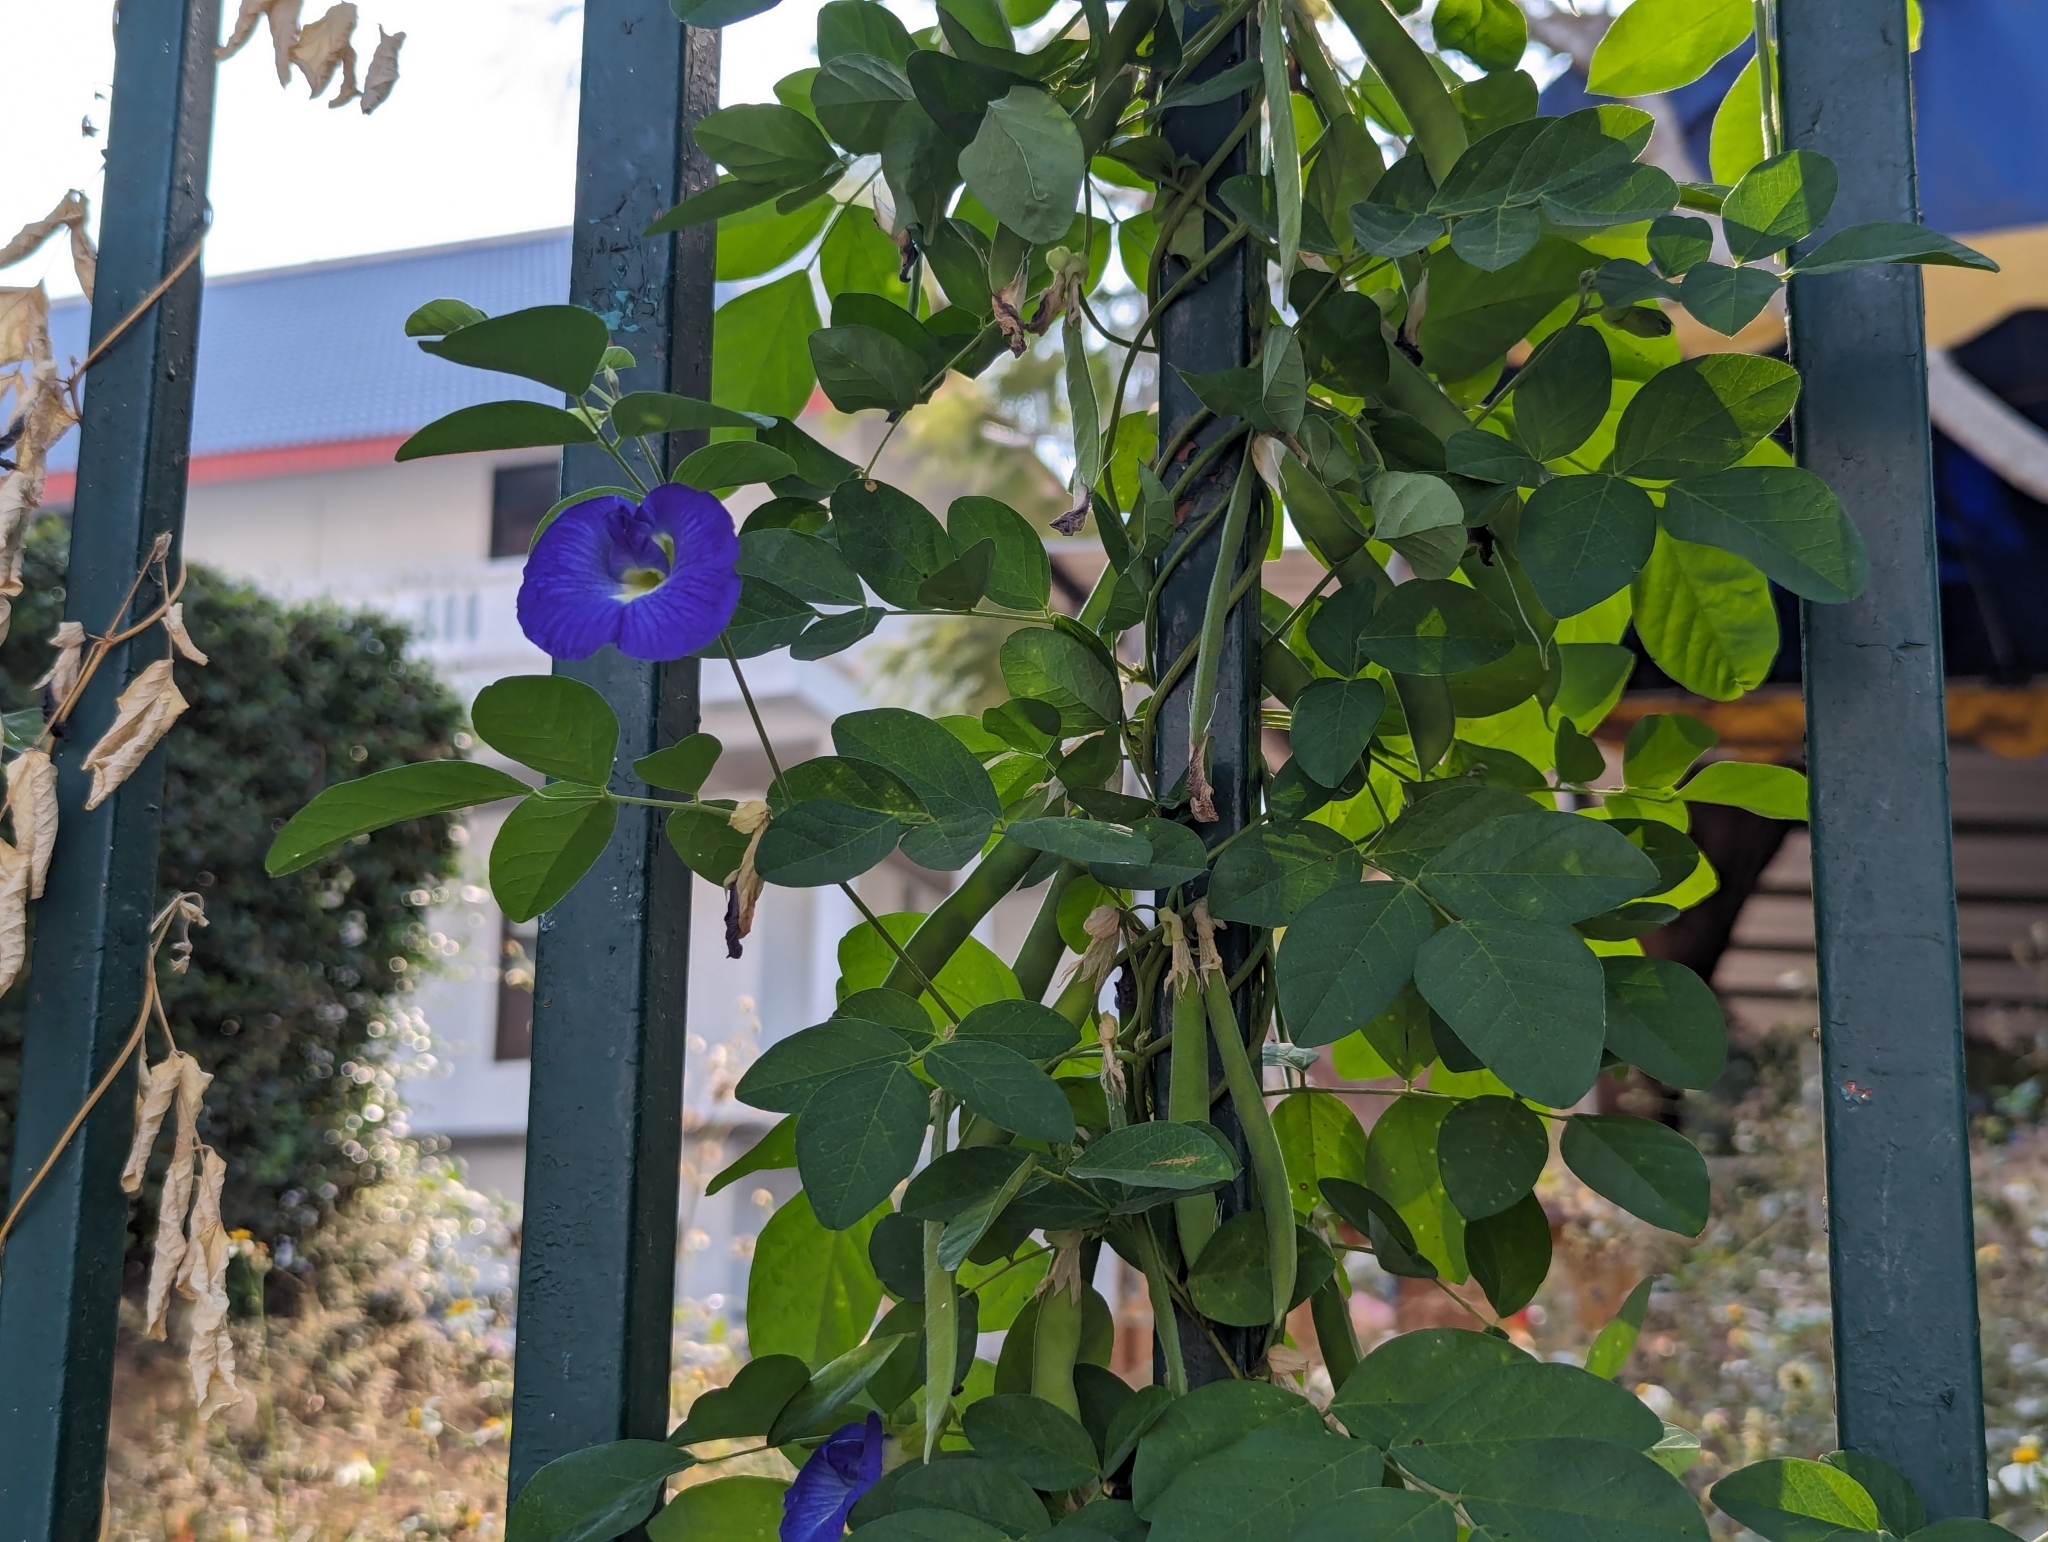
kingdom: Plantae
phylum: Tracheophyta
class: Magnoliopsida
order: Fabales
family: Fabaceae
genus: Clitoria
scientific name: Clitoria ternatea
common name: Asian pigeonwings
